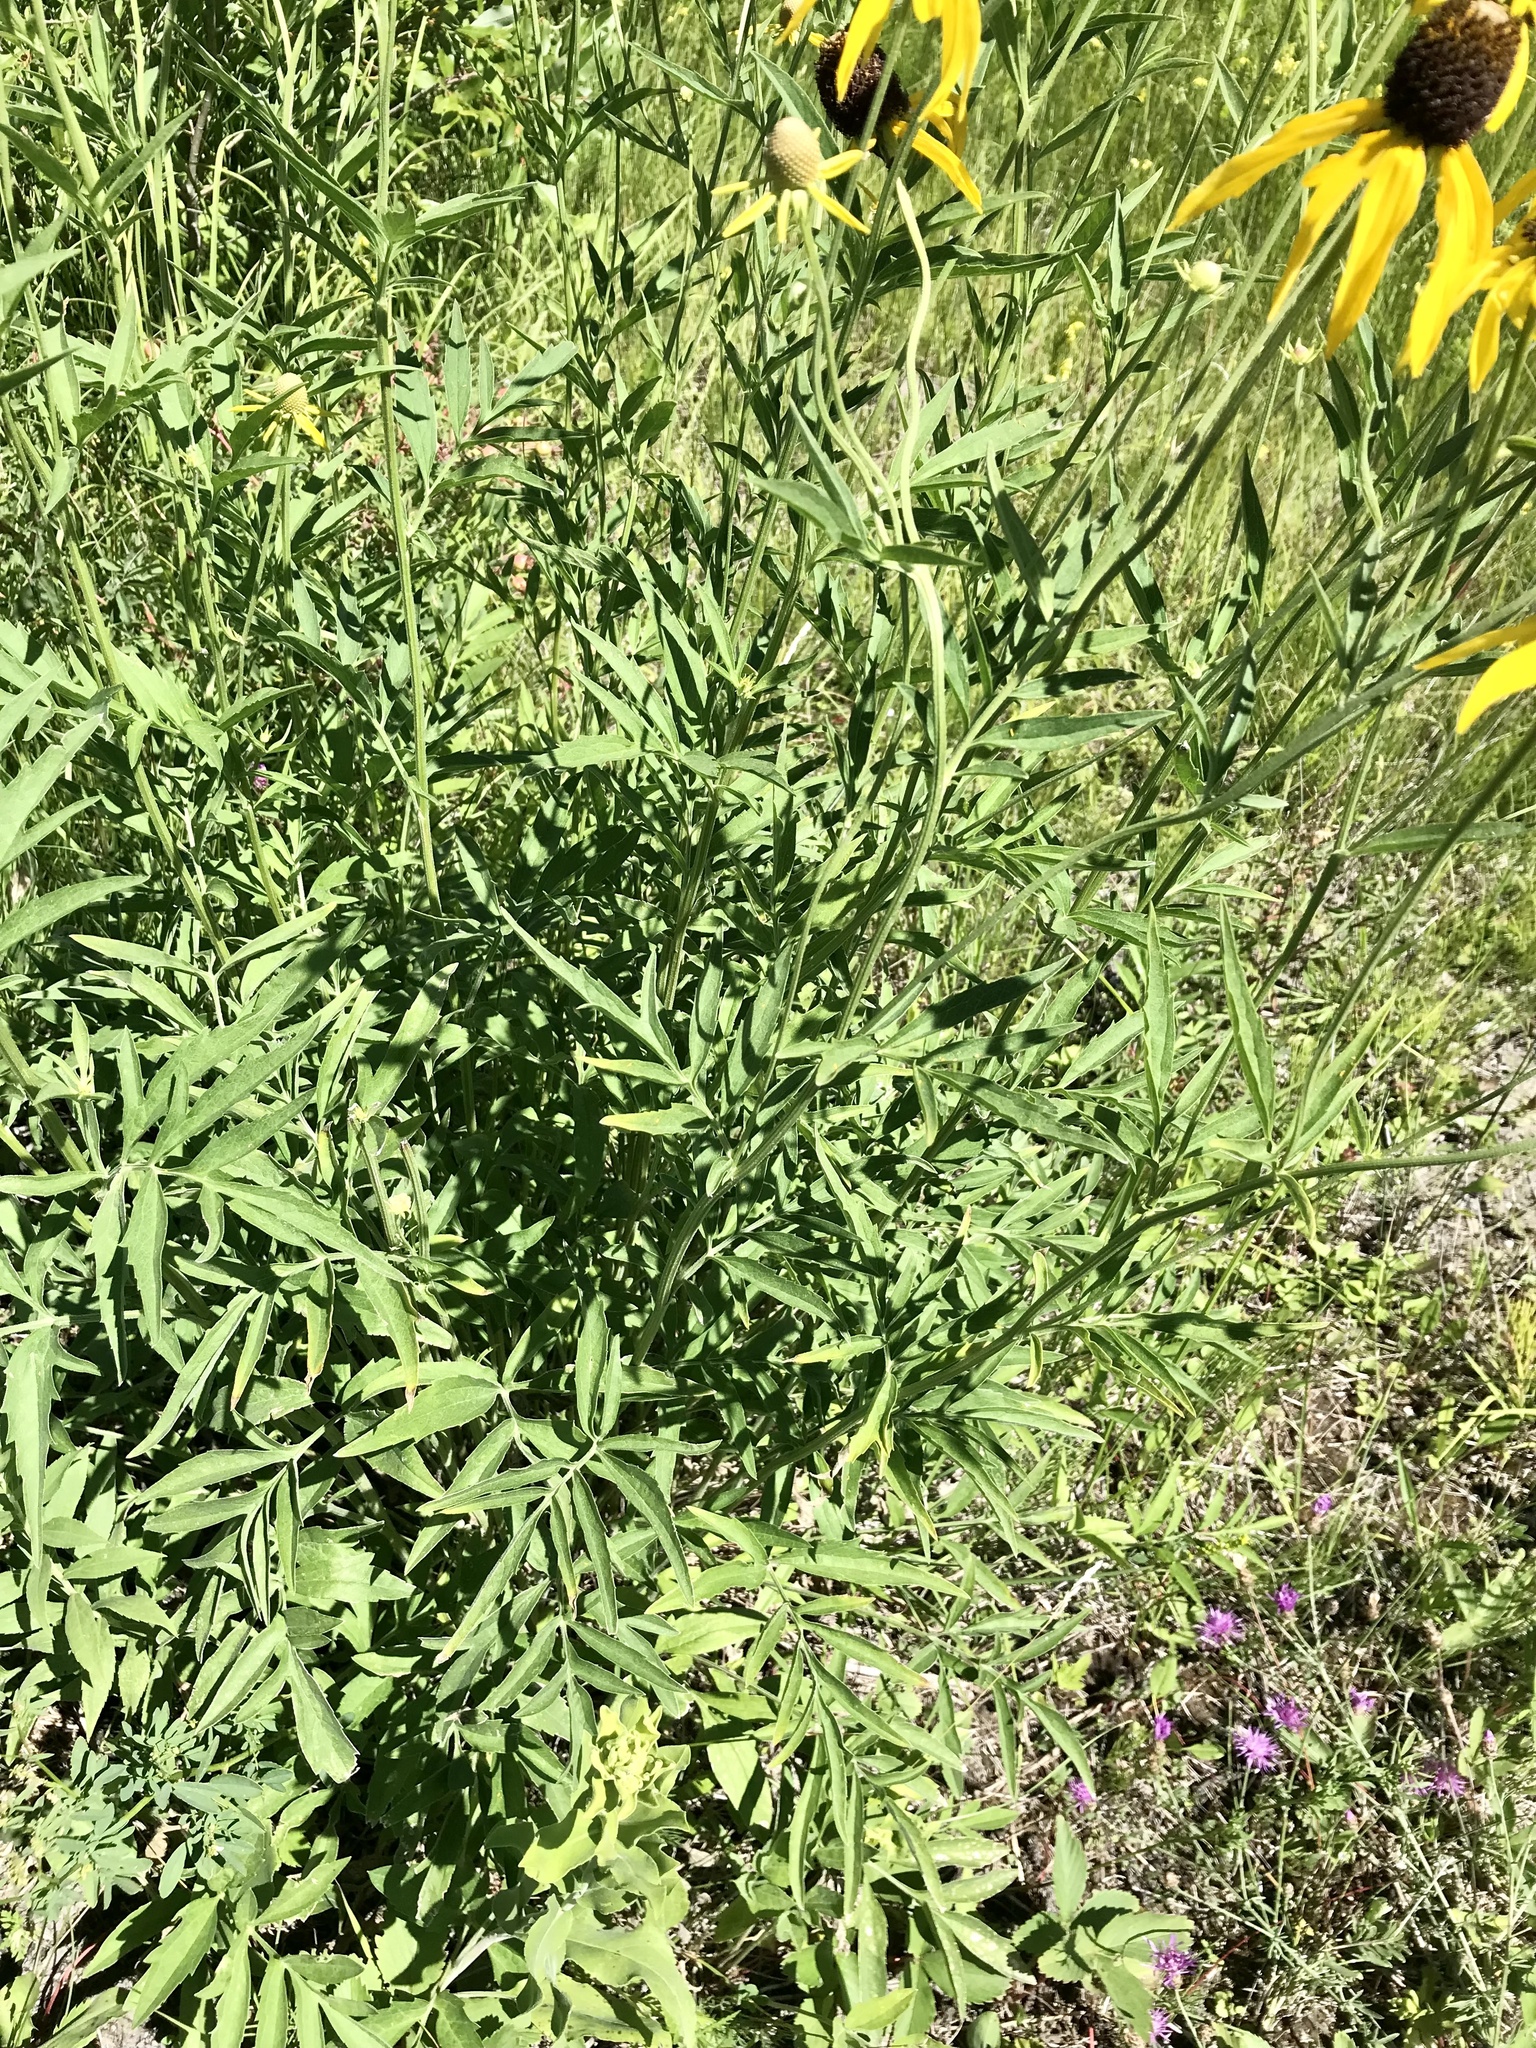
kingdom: Plantae
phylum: Tracheophyta
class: Magnoliopsida
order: Asterales
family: Asteraceae
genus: Ratibida
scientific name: Ratibida pinnata
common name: Drooping prairie-coneflower
